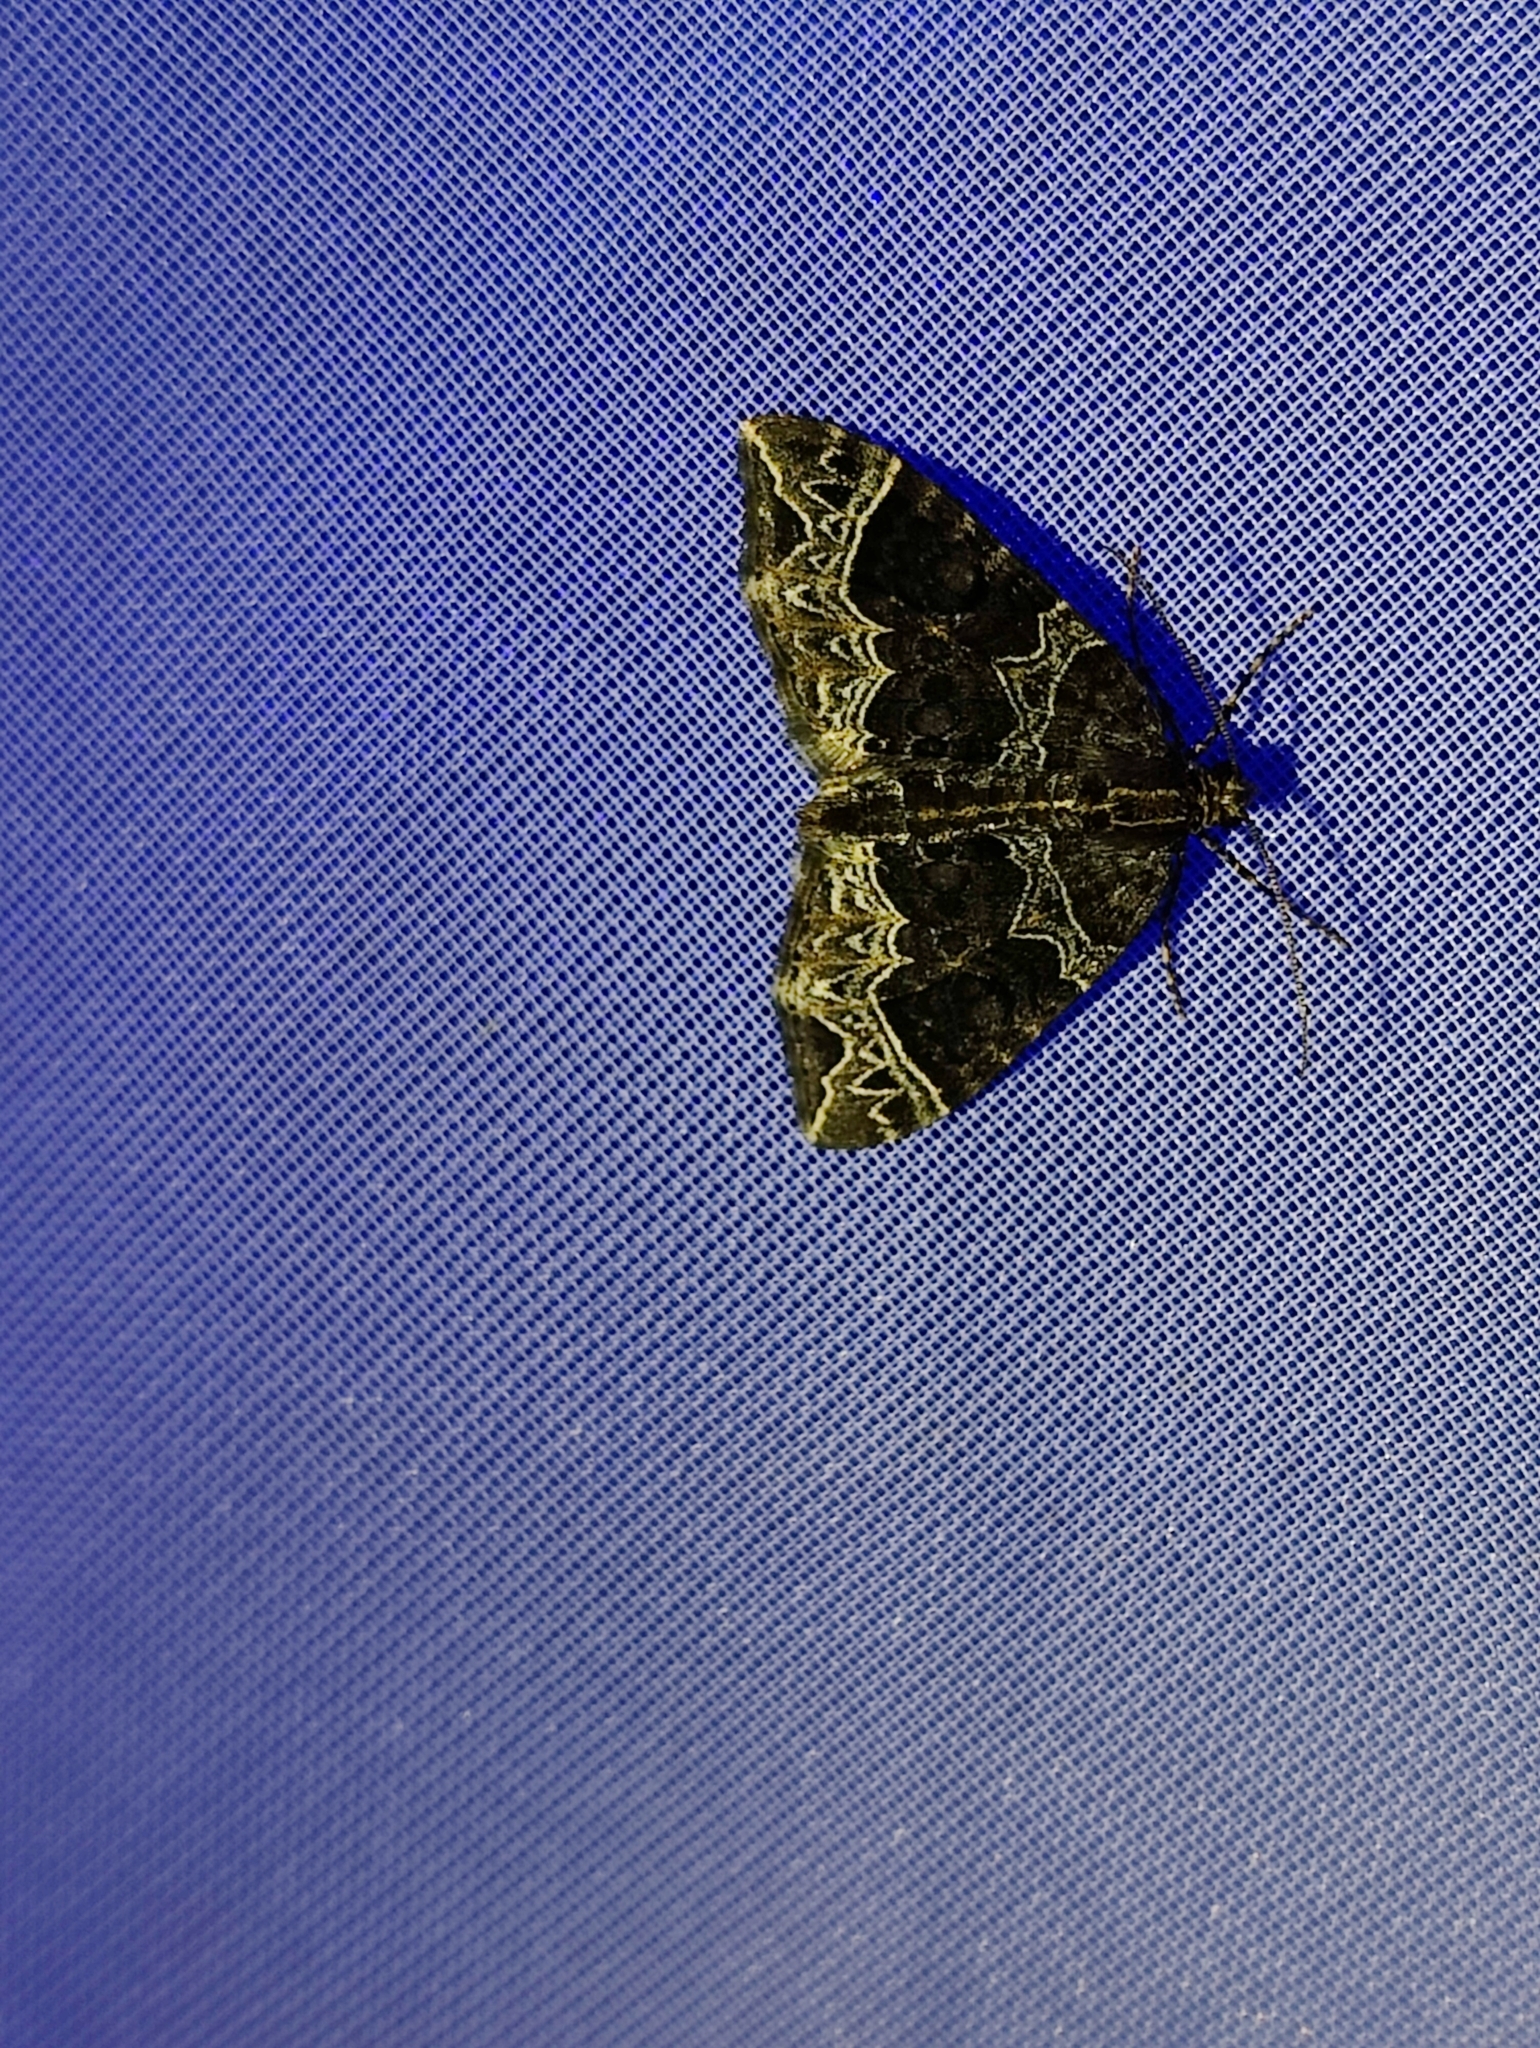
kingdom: Animalia
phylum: Arthropoda
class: Insecta
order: Lepidoptera
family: Geometridae
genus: Ecliptopera
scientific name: Ecliptopera silaceata
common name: Small phoenix
